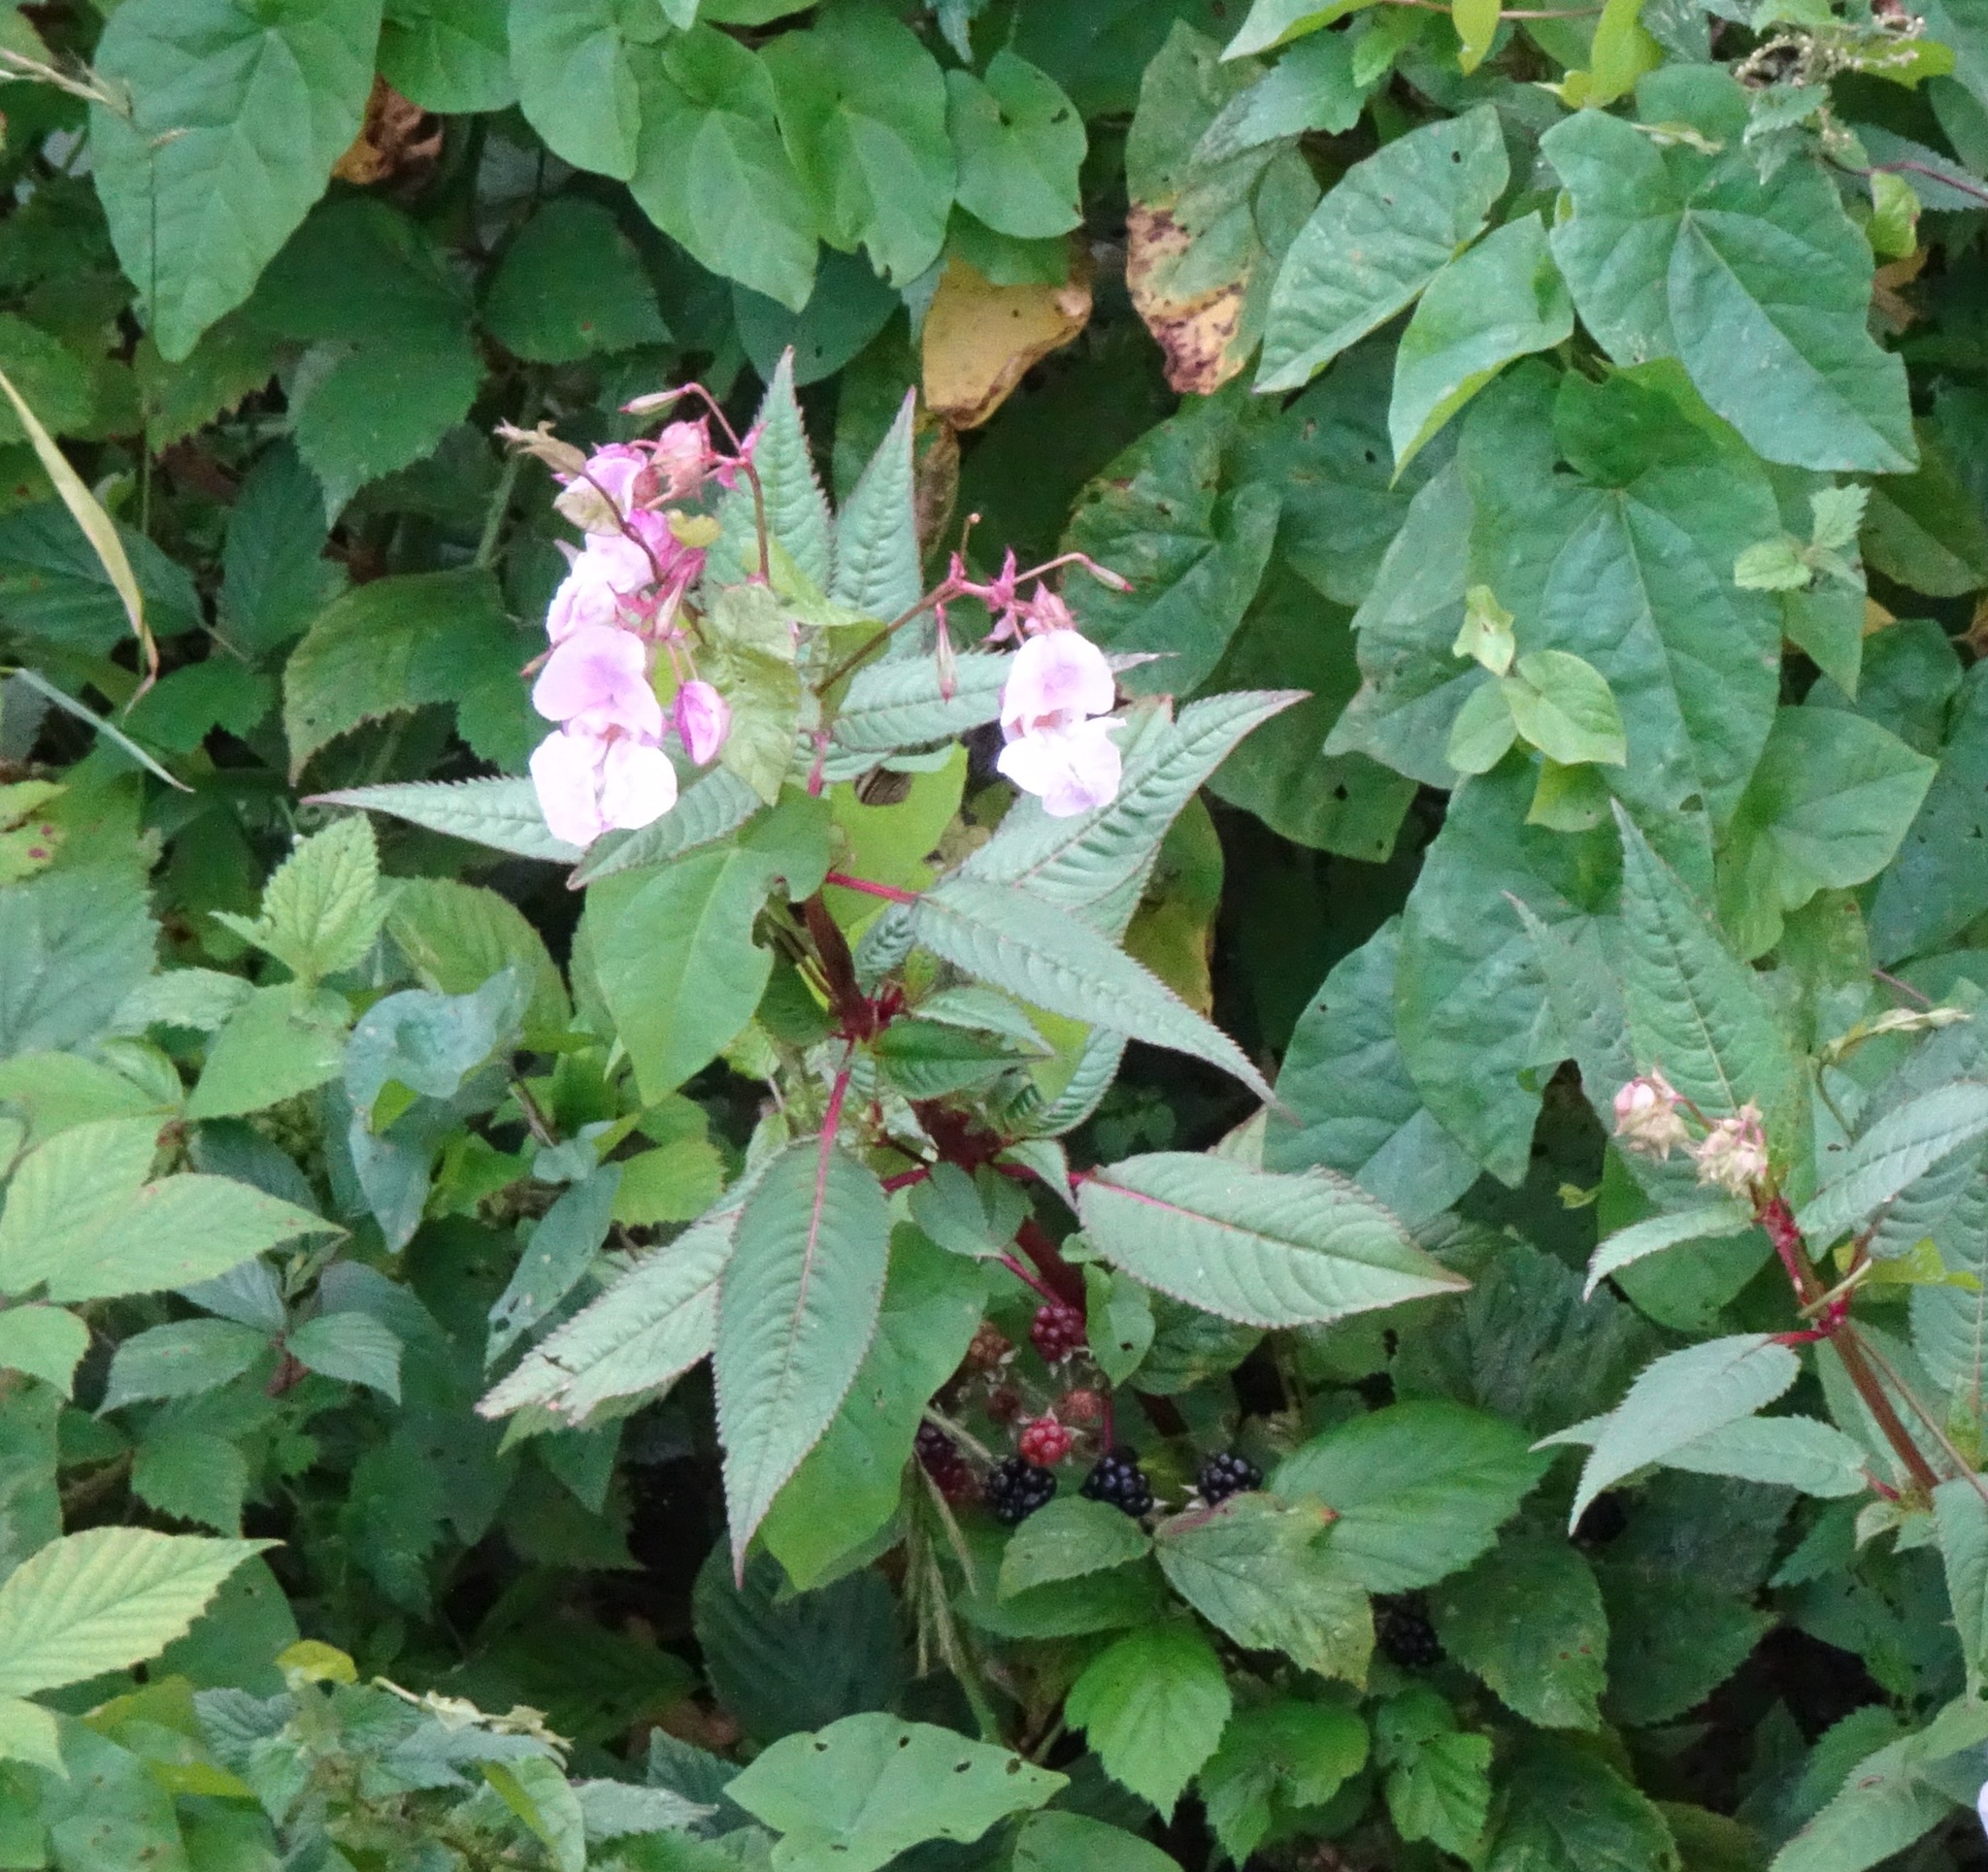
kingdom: Plantae
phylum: Tracheophyta
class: Magnoliopsida
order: Ericales
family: Balsaminaceae
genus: Impatiens
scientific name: Impatiens glandulifera
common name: Himalayan balsam
